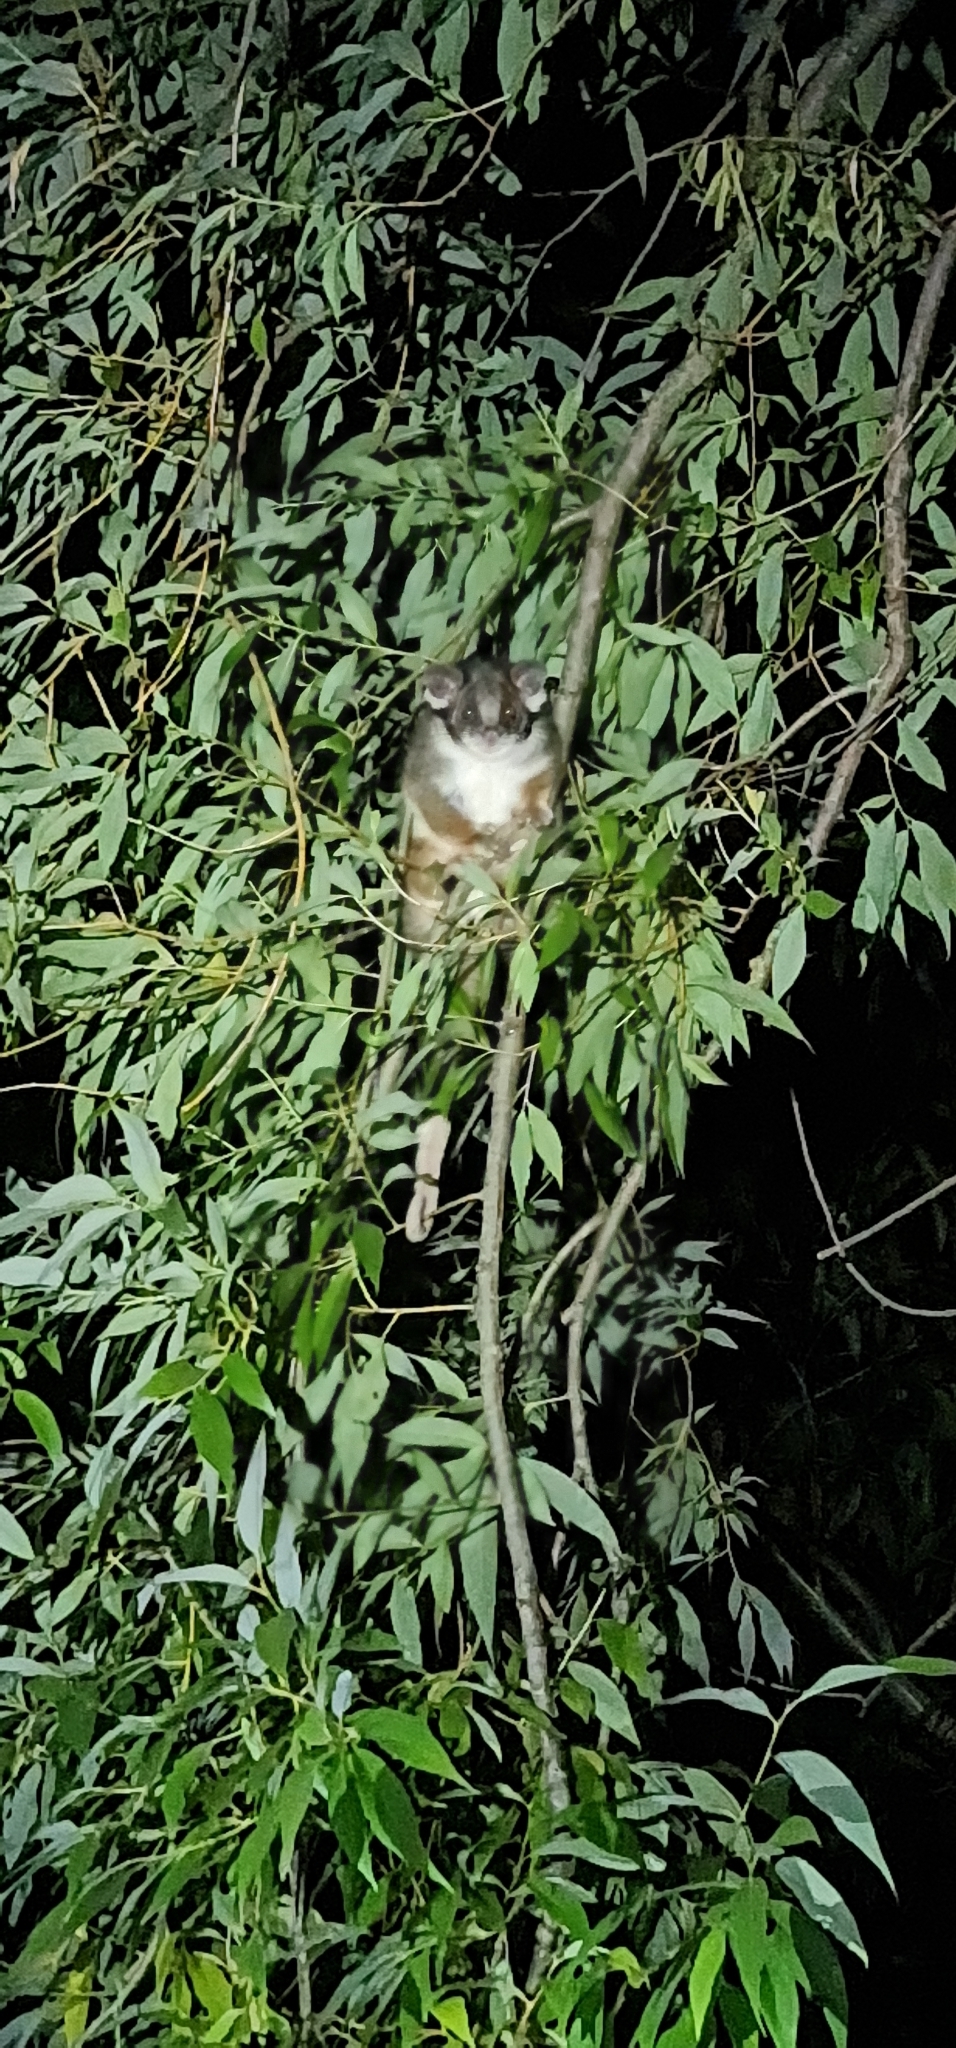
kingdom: Animalia
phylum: Chordata
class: Mammalia
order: Diprotodontia
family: Pseudocheiridae
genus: Pseudocheirus
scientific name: Pseudocheirus peregrinus
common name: Common ringtail possum
